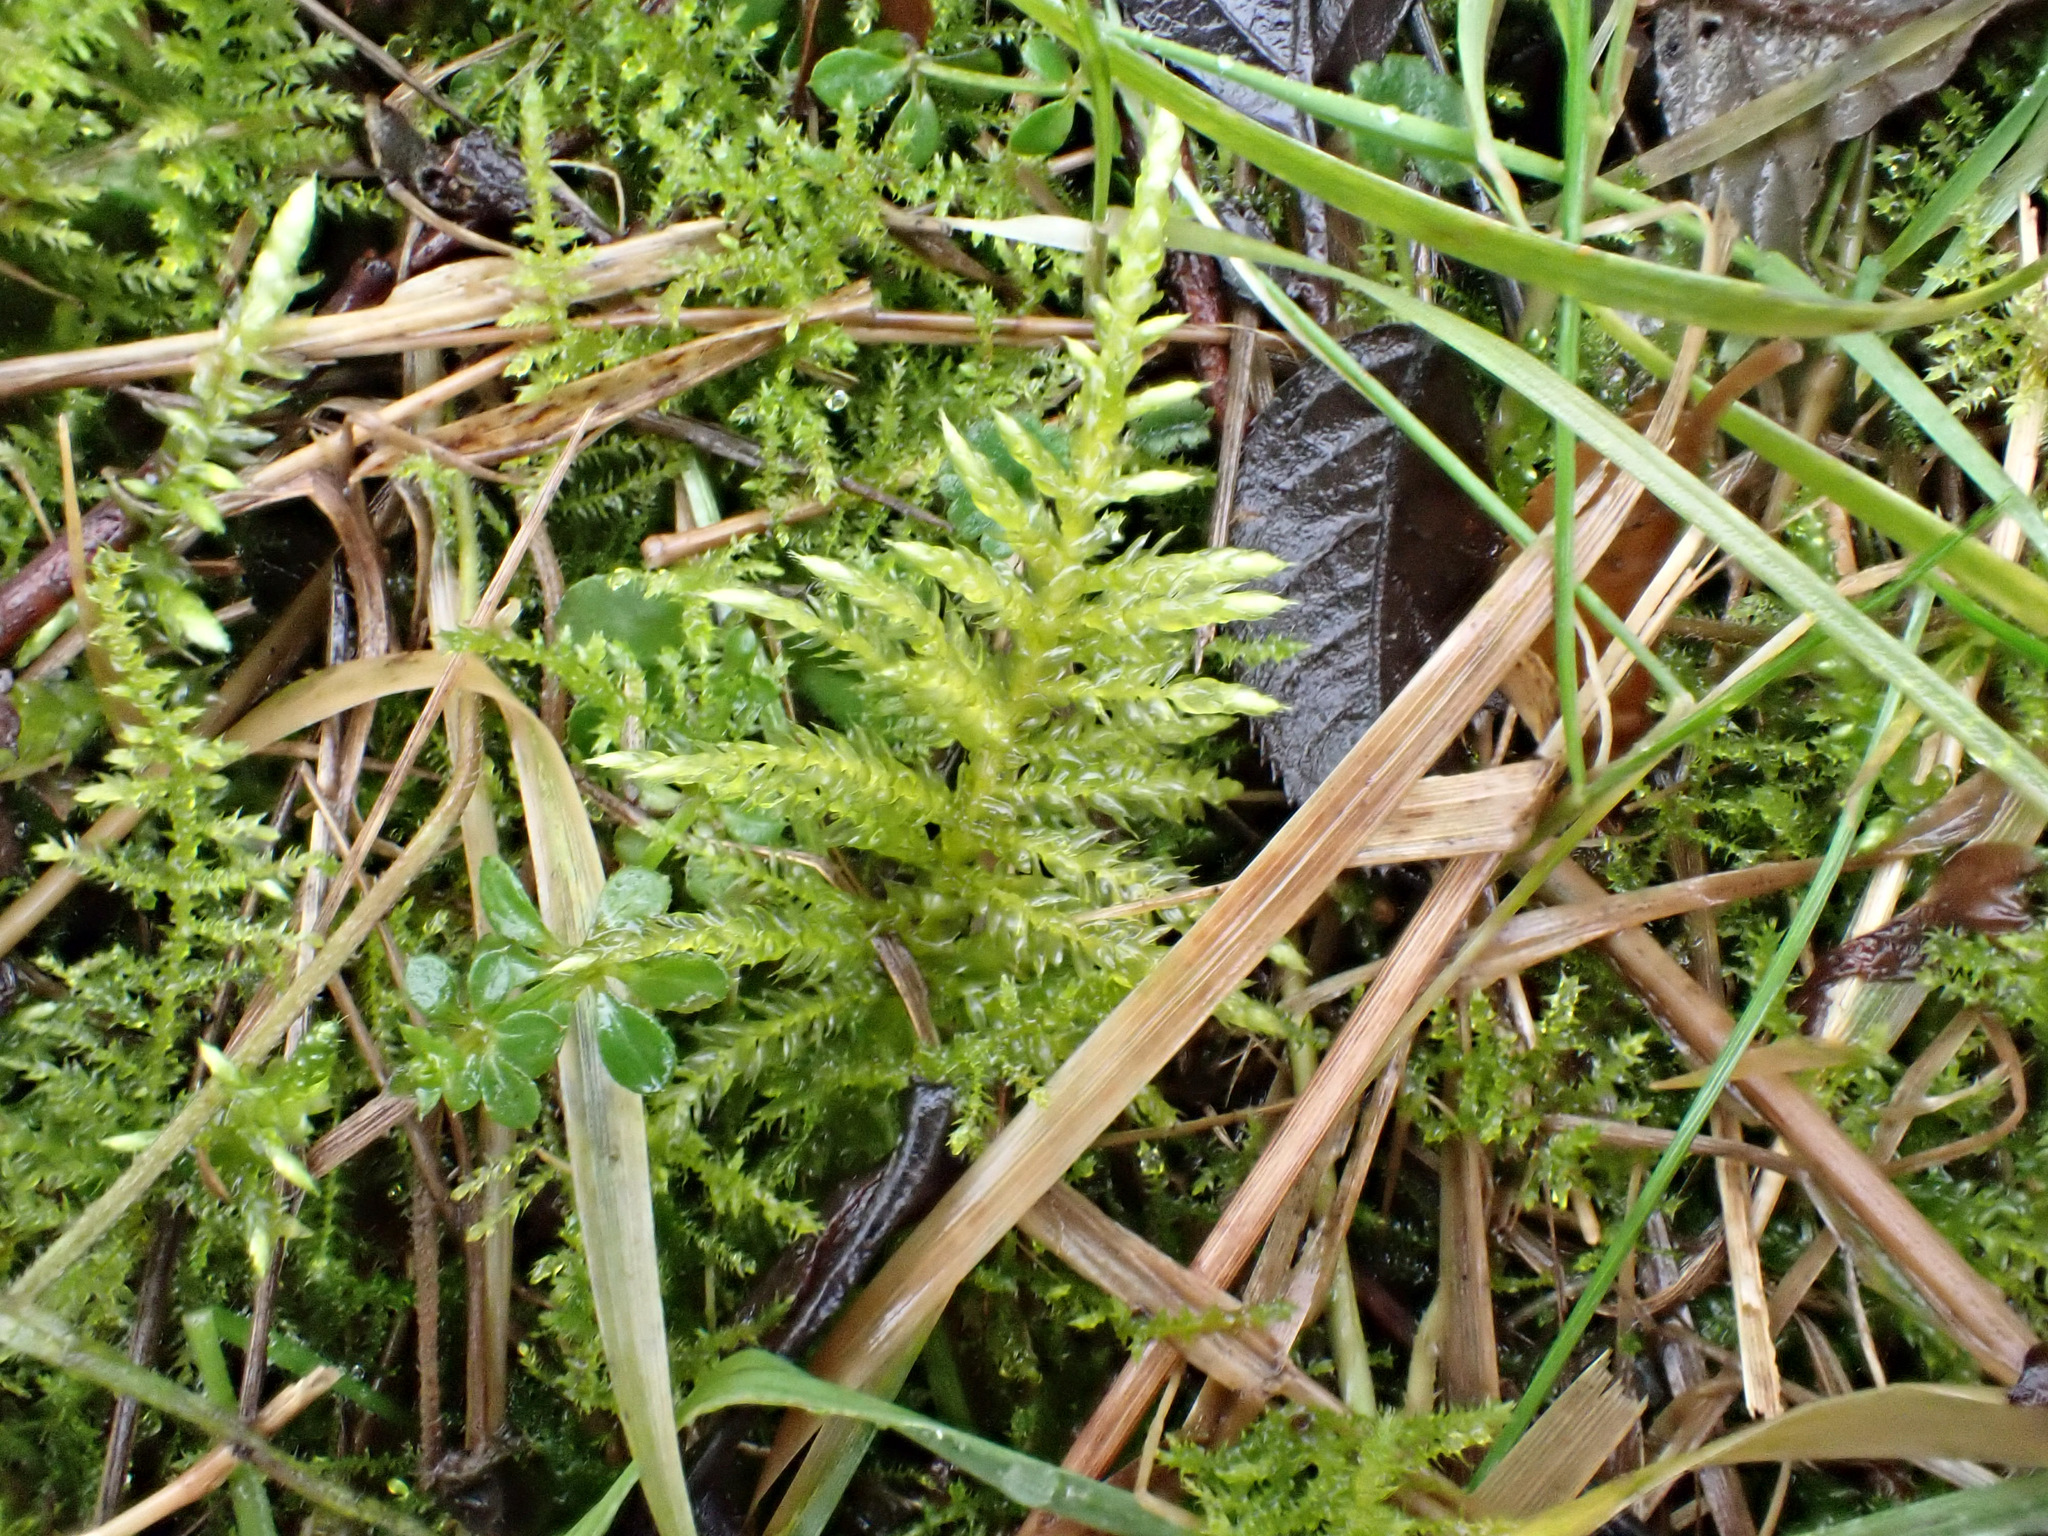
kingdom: Plantae
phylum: Bryophyta
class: Bryopsida
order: Hypnales
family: Brachytheciaceae
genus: Cirriphyllum
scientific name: Cirriphyllum piliferum
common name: Hair-pointed moss
